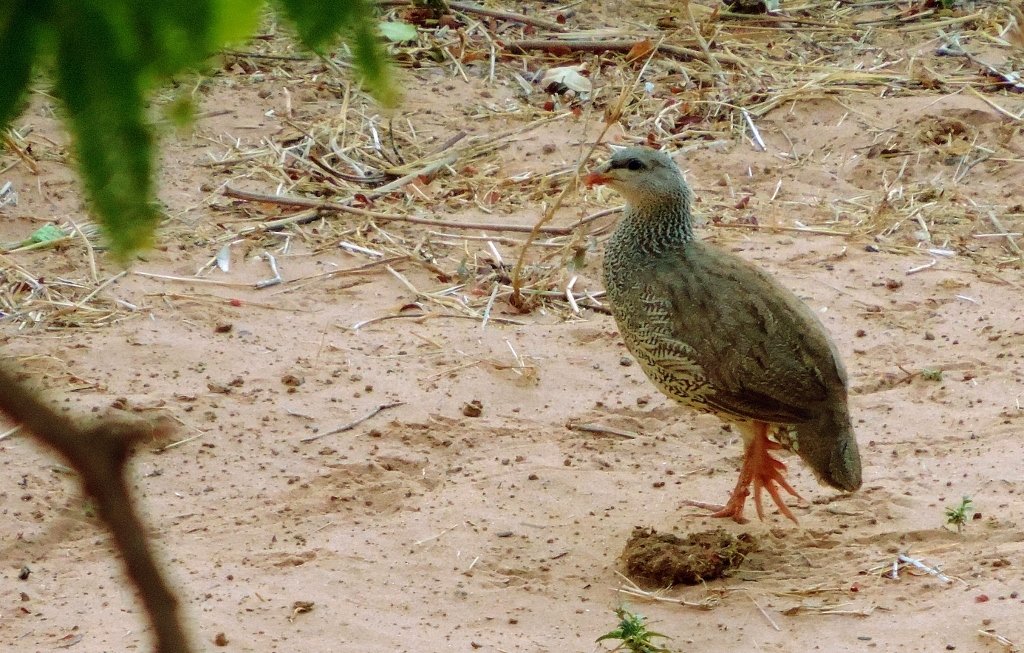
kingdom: Animalia
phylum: Chordata
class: Aves
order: Galliformes
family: Phasianidae
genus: Pternistis
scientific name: Pternistis natalensis
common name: Natal spurfowl
